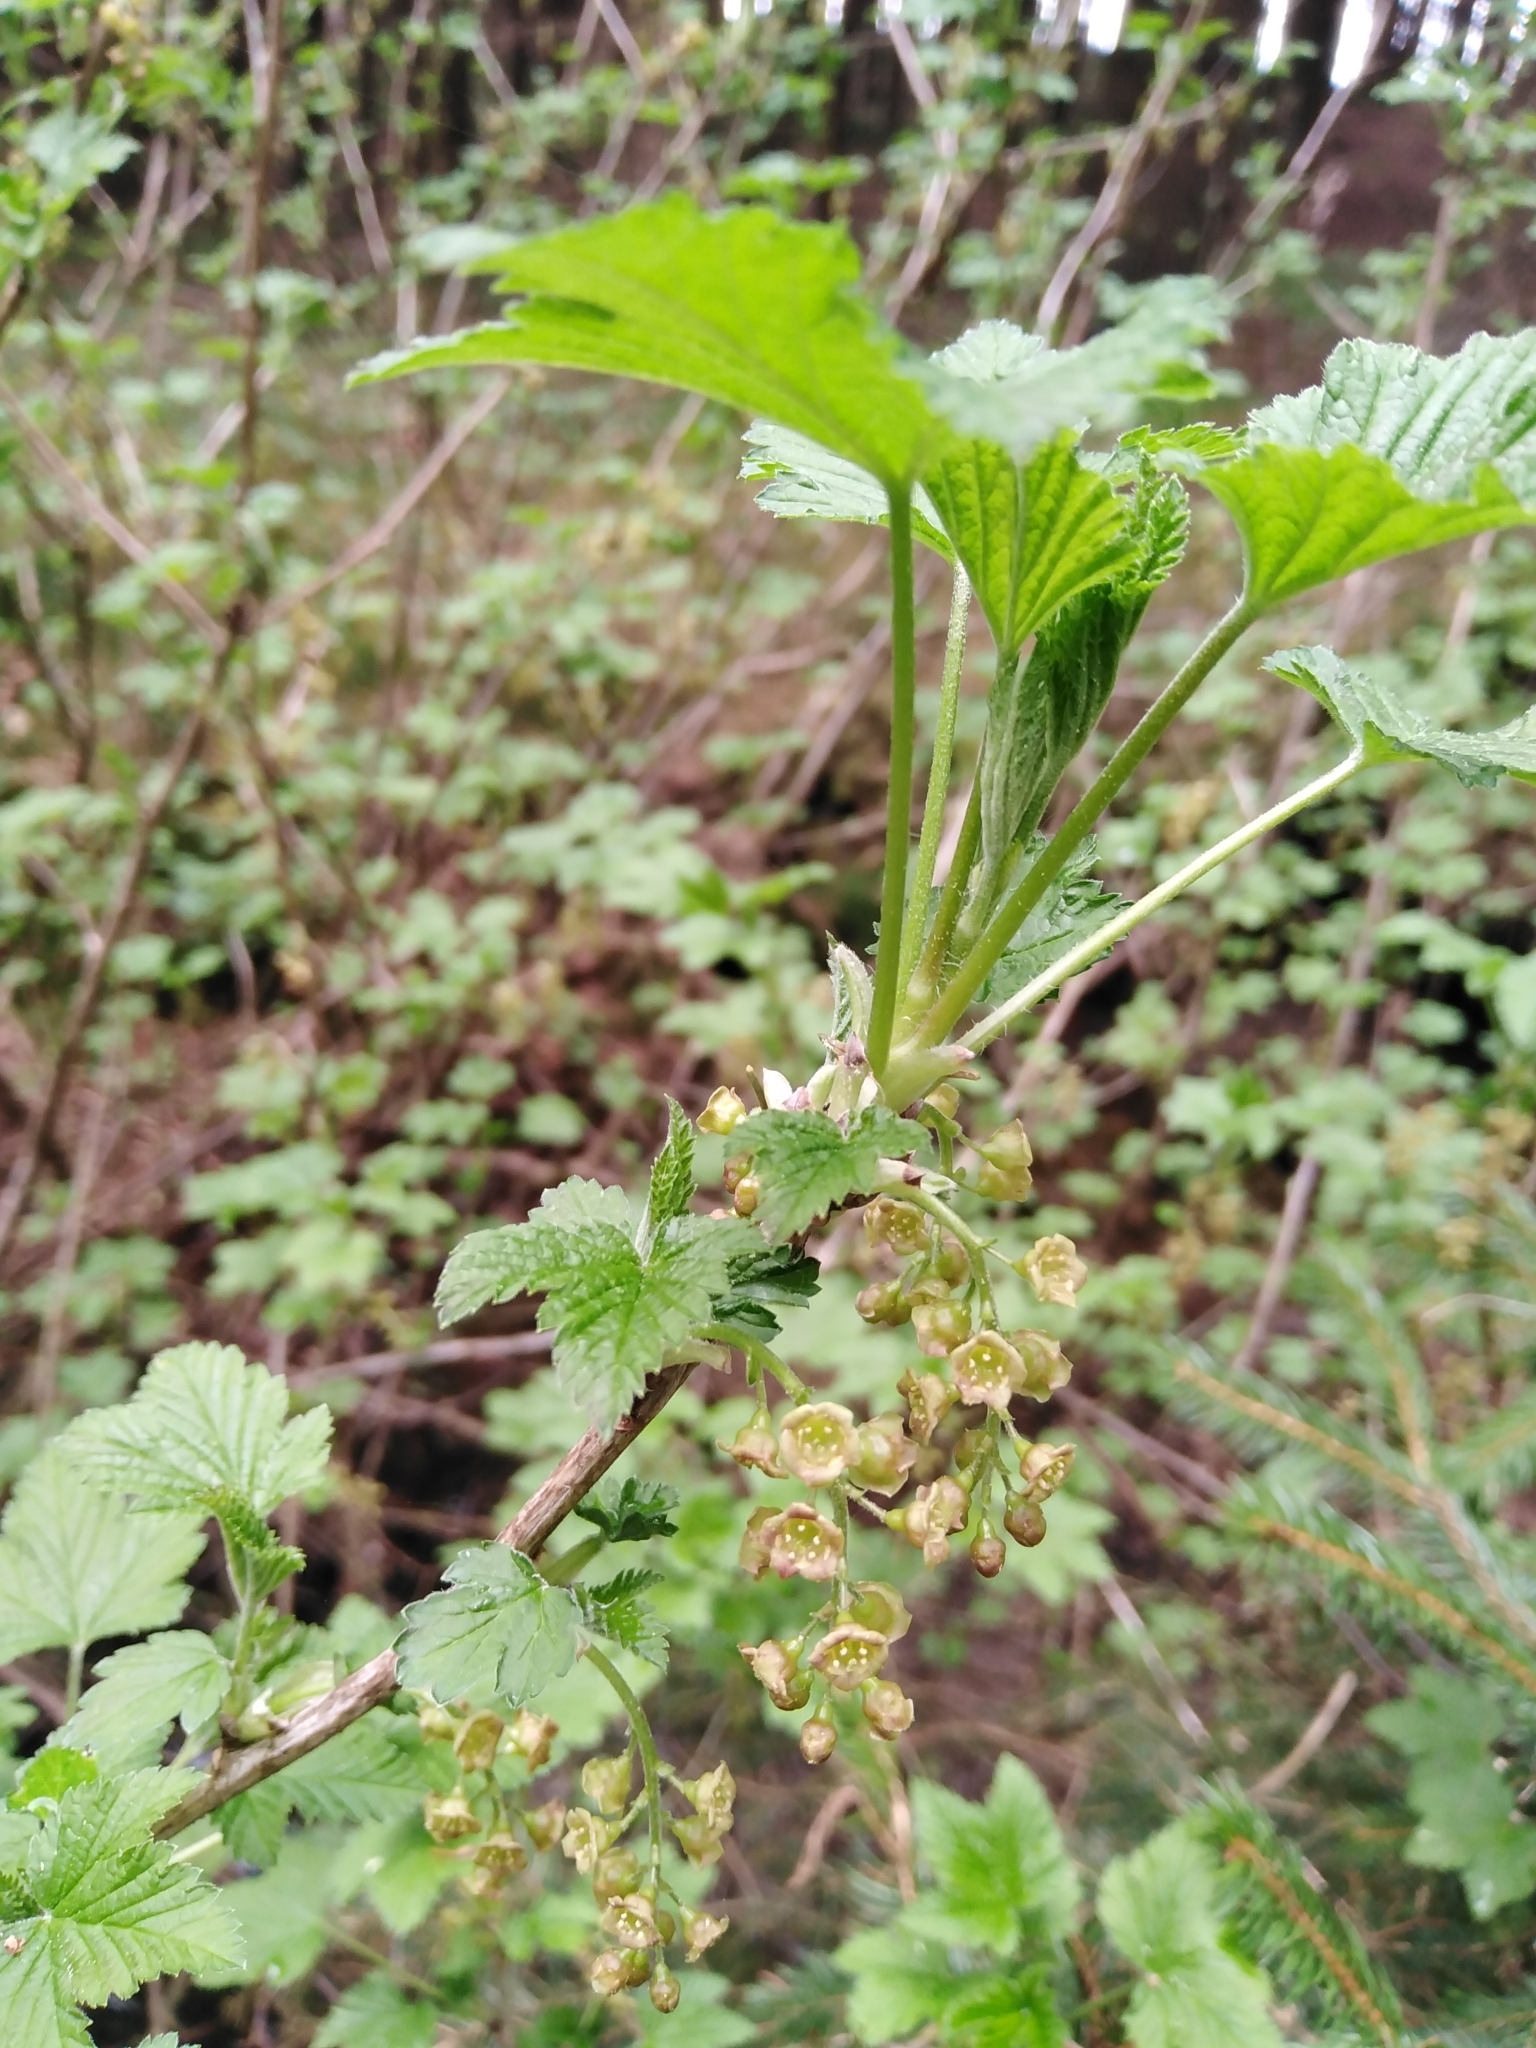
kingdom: Plantae
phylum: Tracheophyta
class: Magnoliopsida
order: Saxifragales
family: Grossulariaceae
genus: Ribes
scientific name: Ribes rubrum
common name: Red currant
